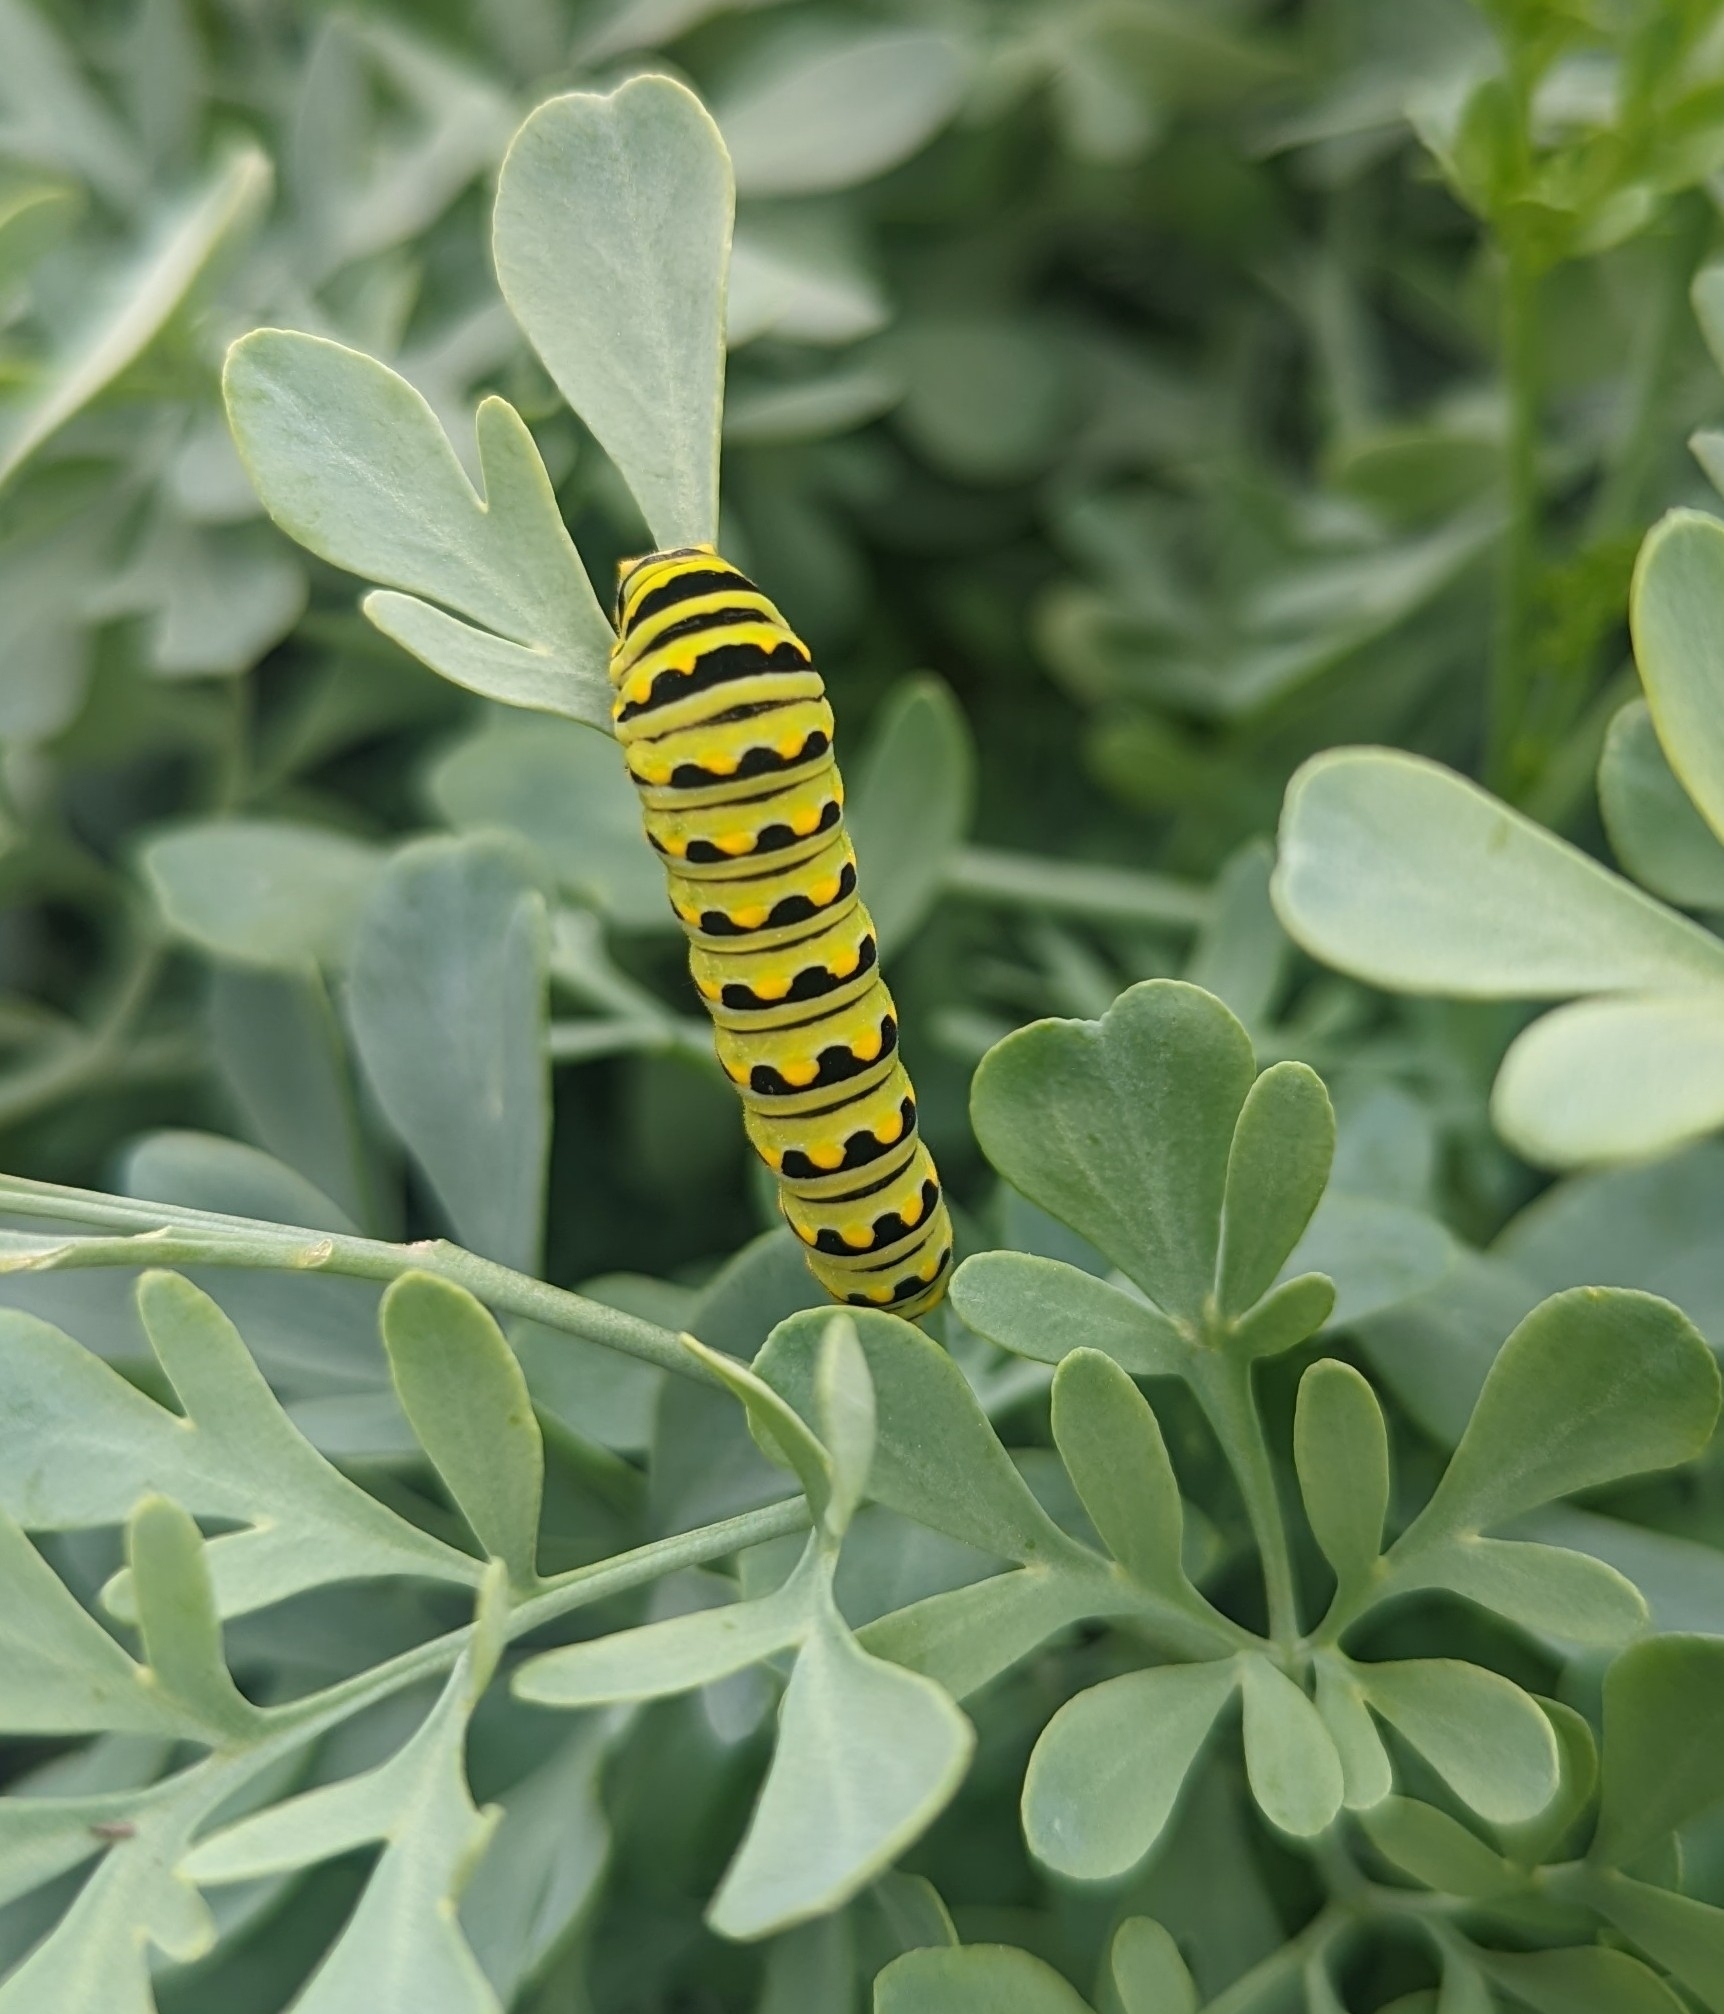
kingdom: Animalia
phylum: Arthropoda
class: Insecta
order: Lepidoptera
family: Papilionidae
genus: Papilio
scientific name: Papilio polyxenes
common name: Black swallowtail
